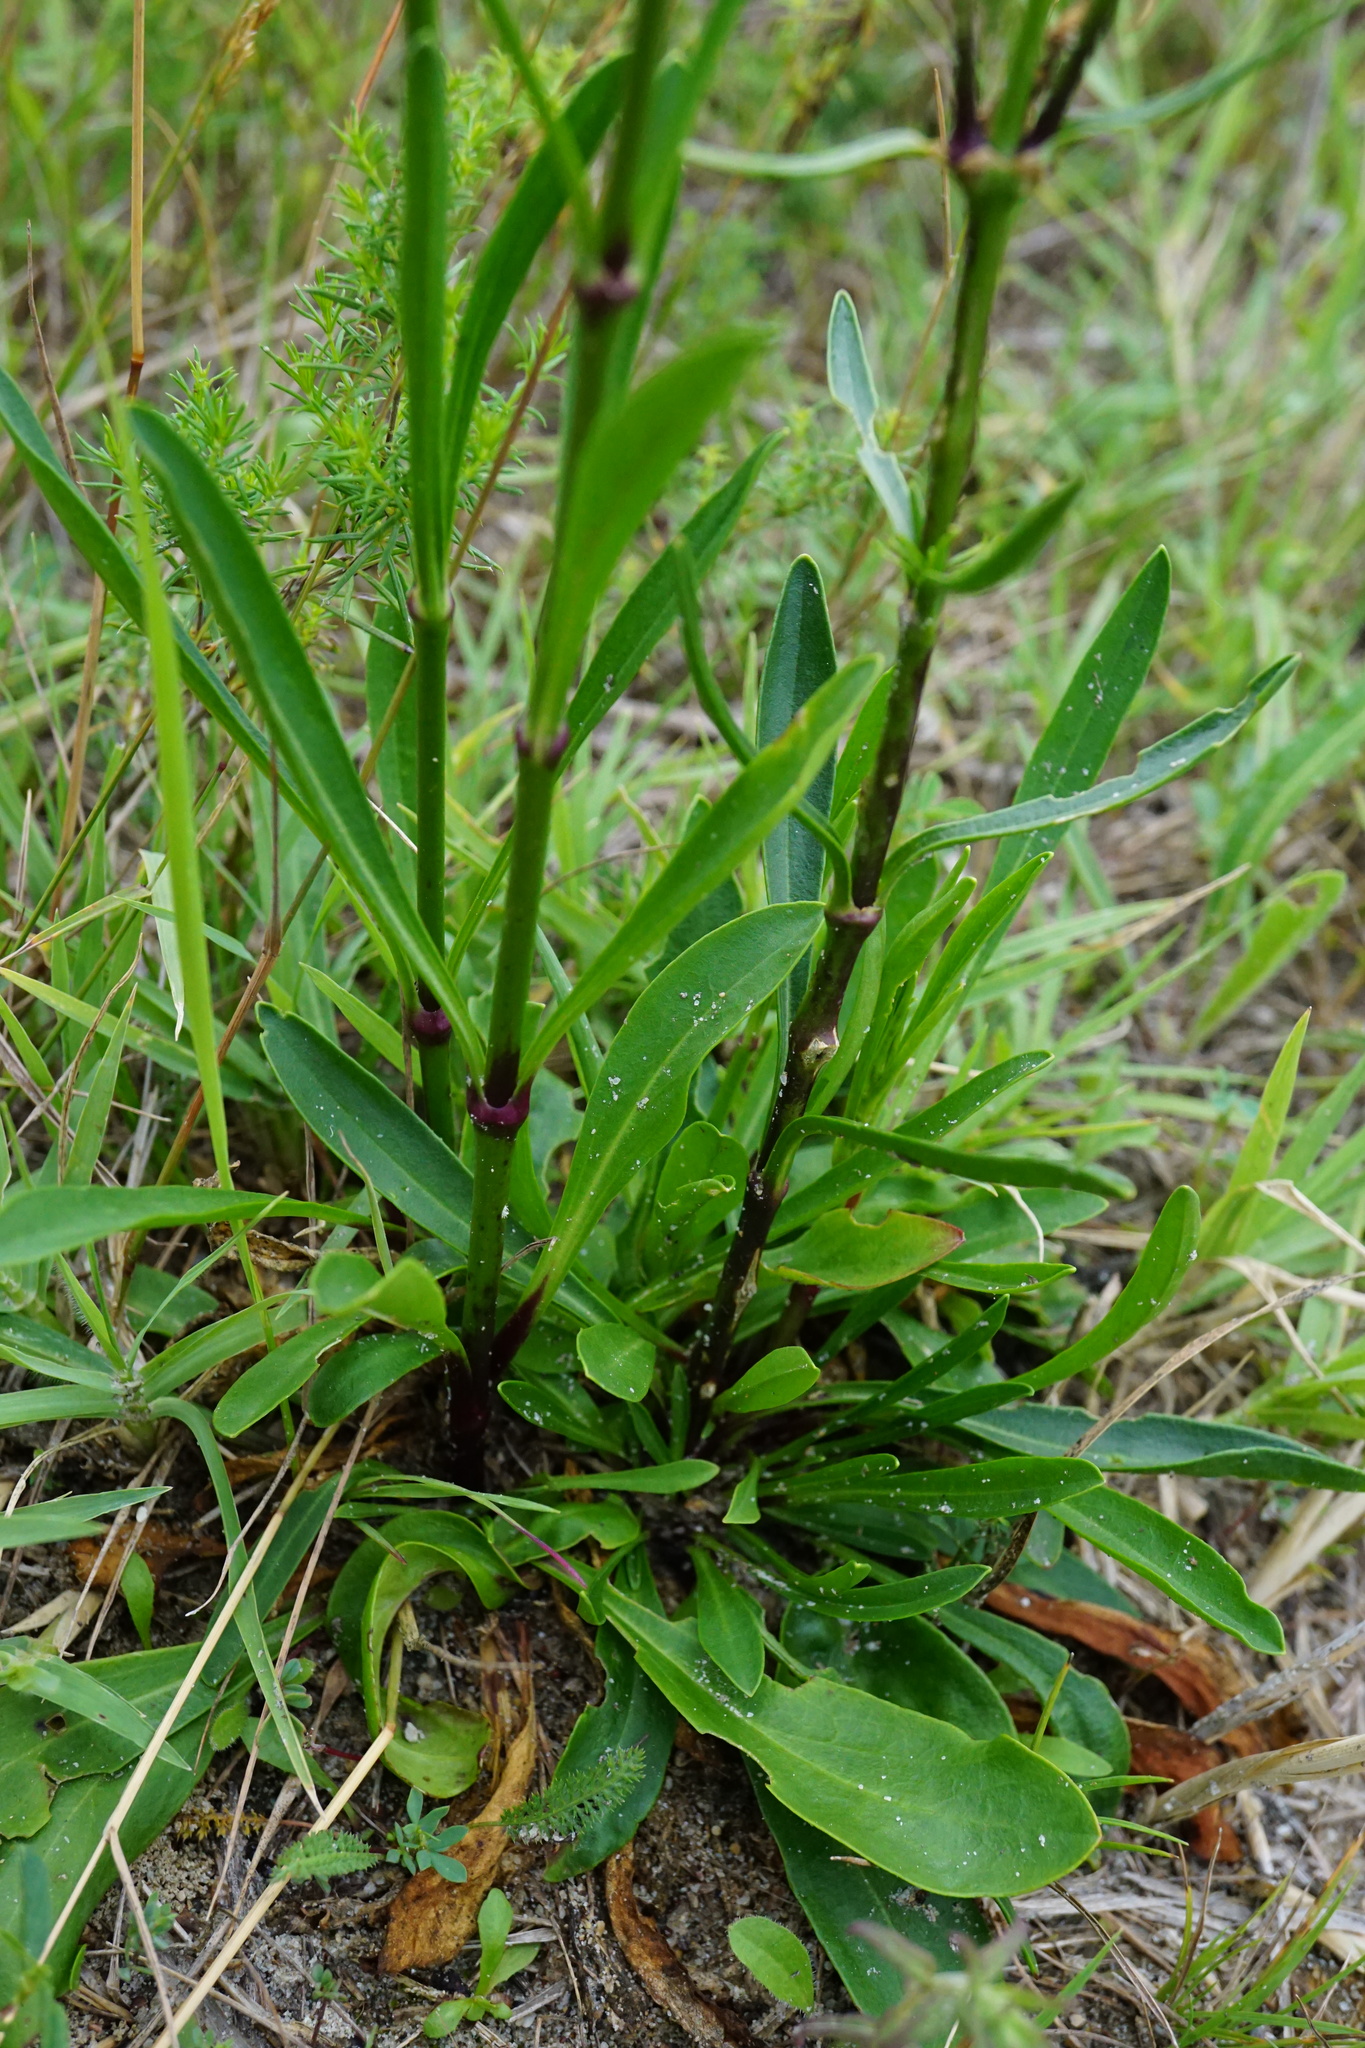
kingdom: Plantae
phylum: Tracheophyta
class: Magnoliopsida
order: Caryophyllales
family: Caryophyllaceae
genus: Silene
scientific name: Silene multiflora
